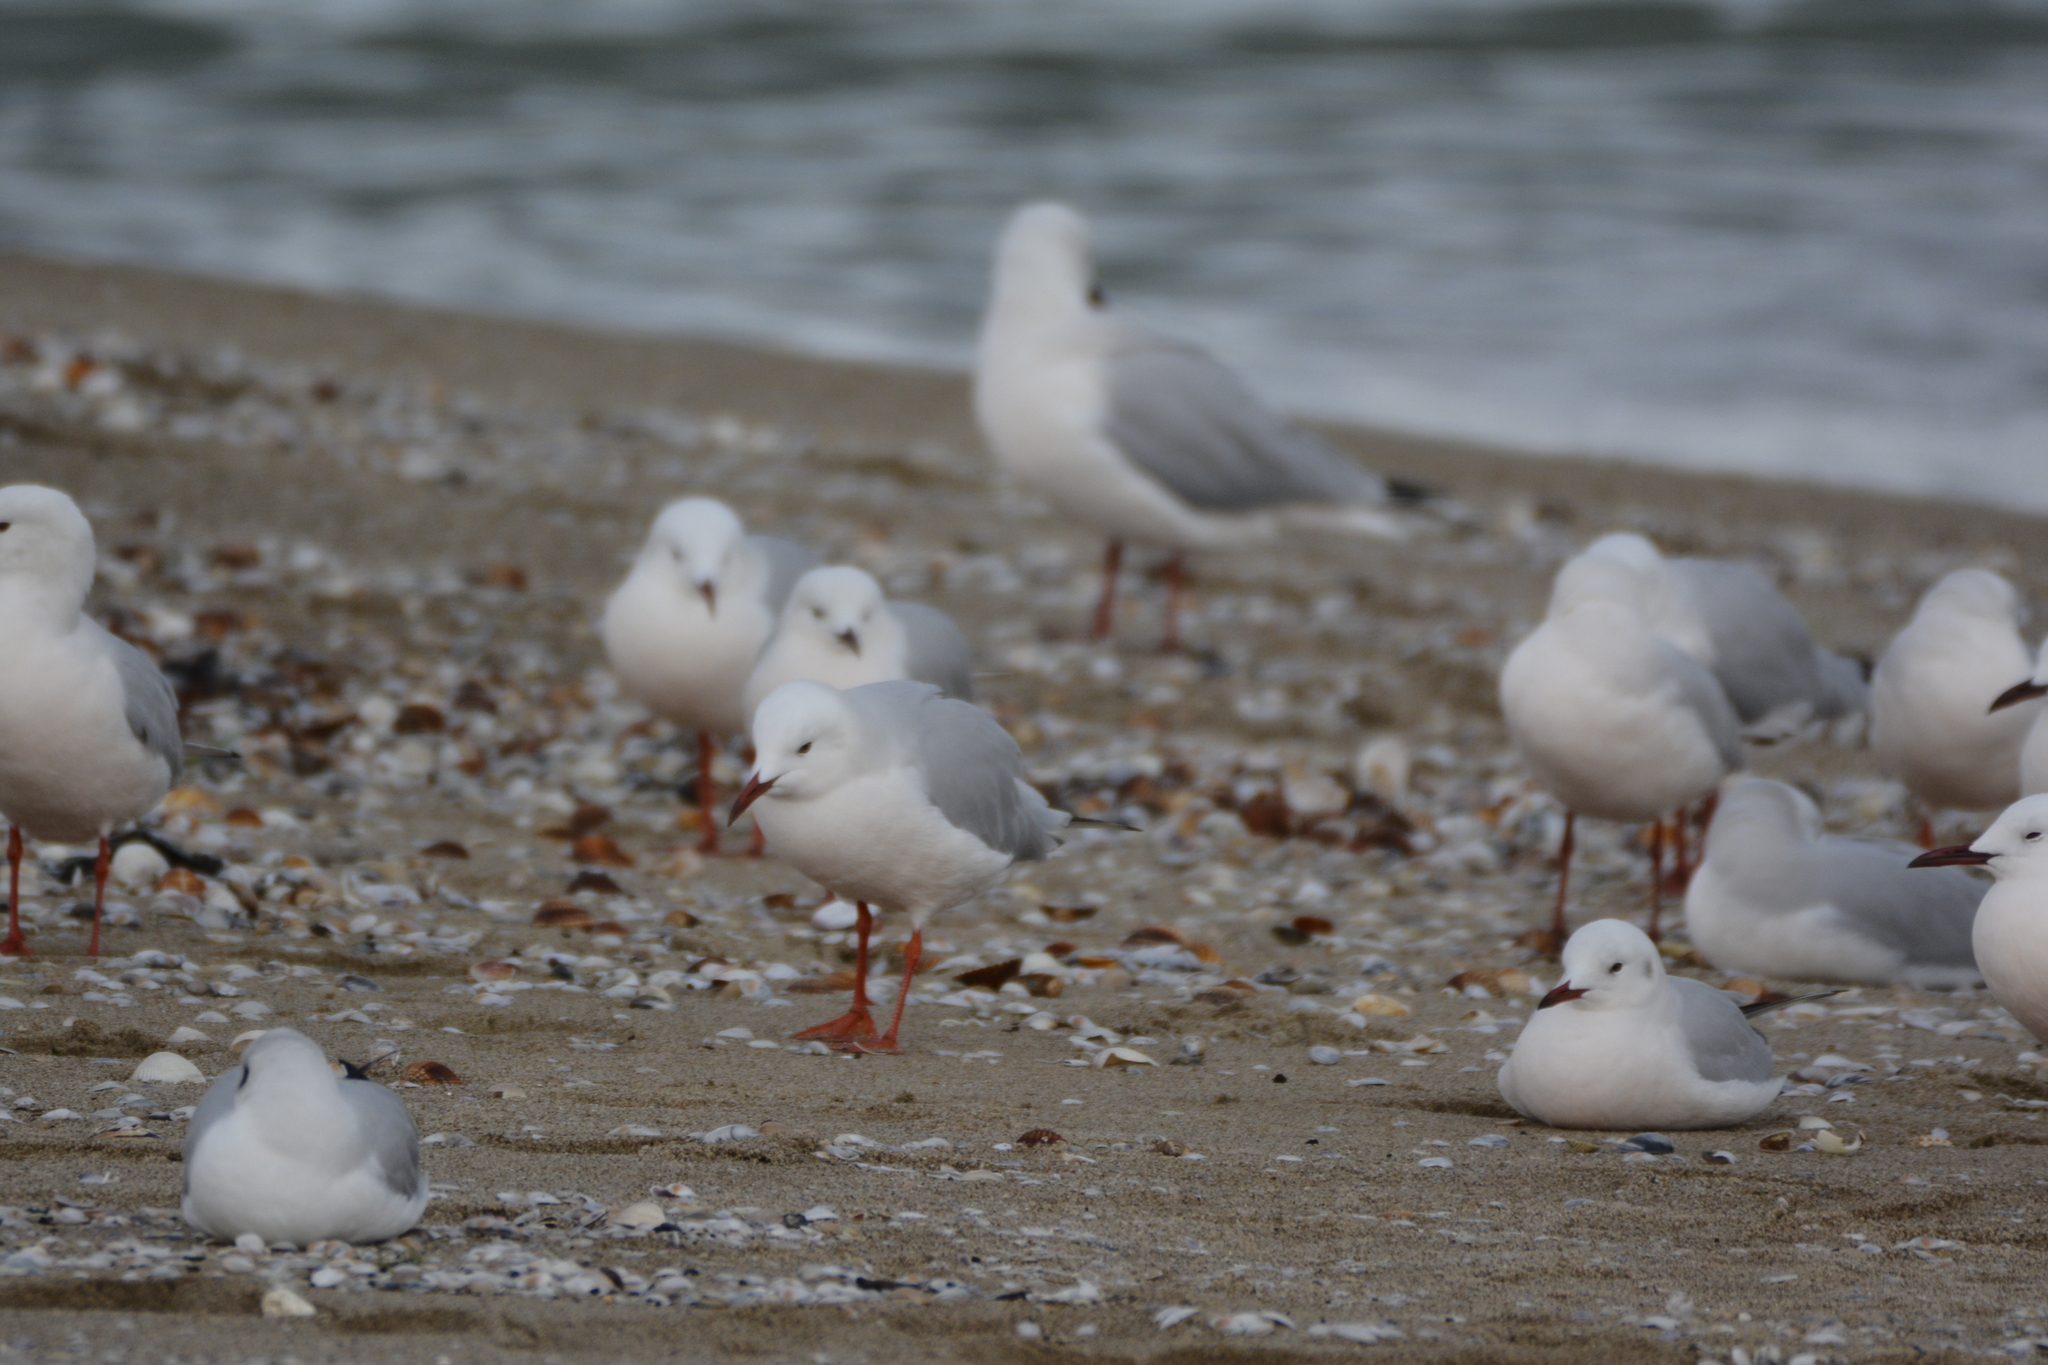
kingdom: Animalia
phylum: Chordata
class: Aves
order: Charadriiformes
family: Laridae
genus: Chroicocephalus
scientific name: Chroicocephalus genei
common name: Slender-billed gull
